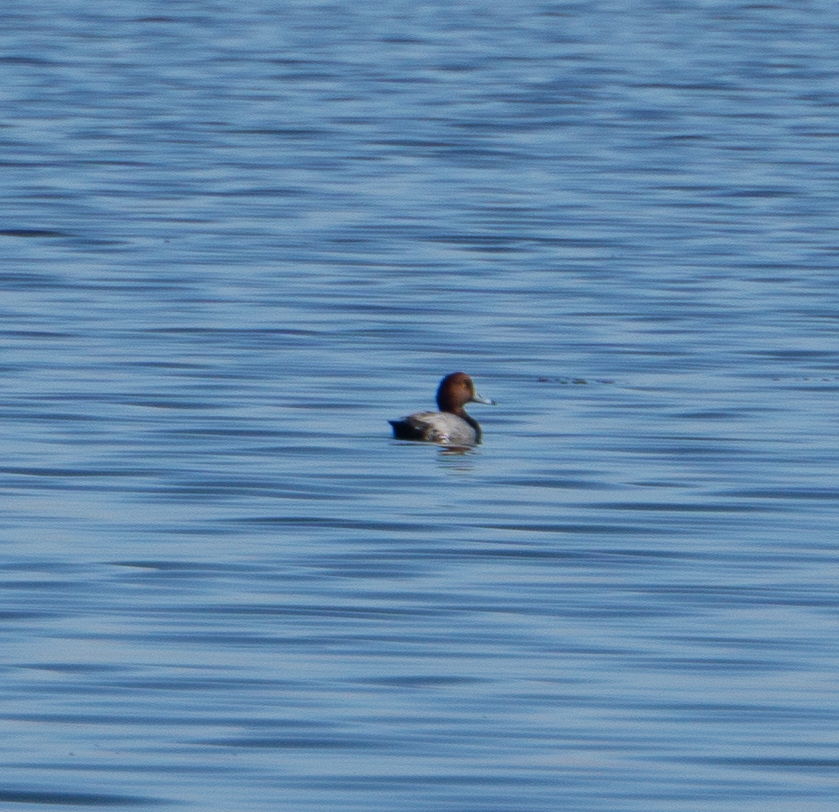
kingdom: Animalia
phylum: Chordata
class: Aves
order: Anseriformes
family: Anatidae
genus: Aythya
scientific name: Aythya americana
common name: Redhead
